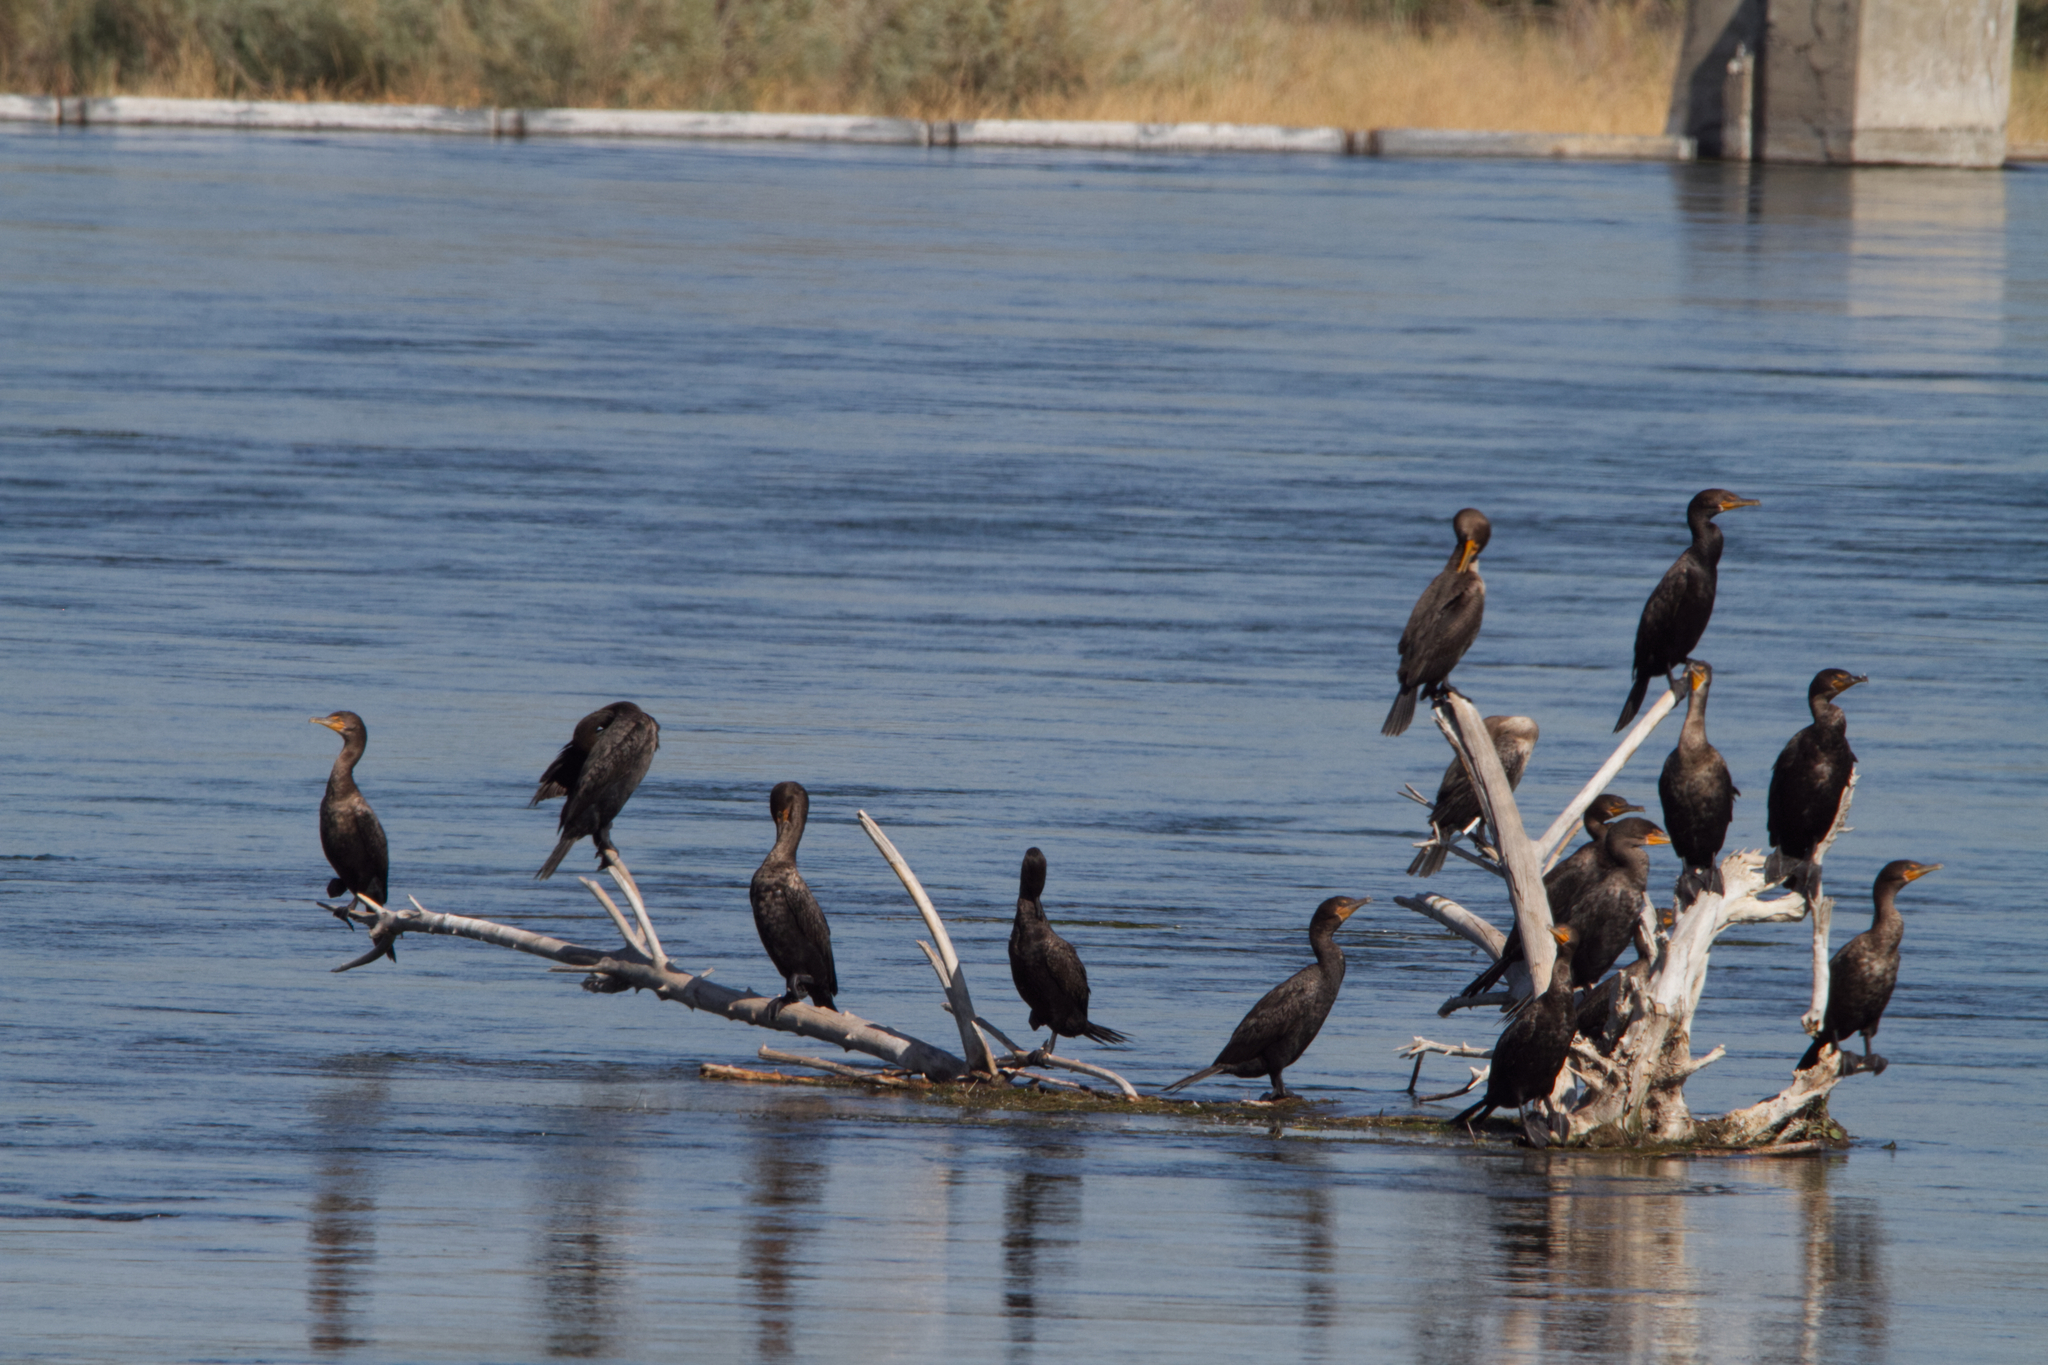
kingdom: Animalia
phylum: Chordata
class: Aves
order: Suliformes
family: Phalacrocoracidae
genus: Phalacrocorax
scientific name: Phalacrocorax auritus
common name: Double-crested cormorant
